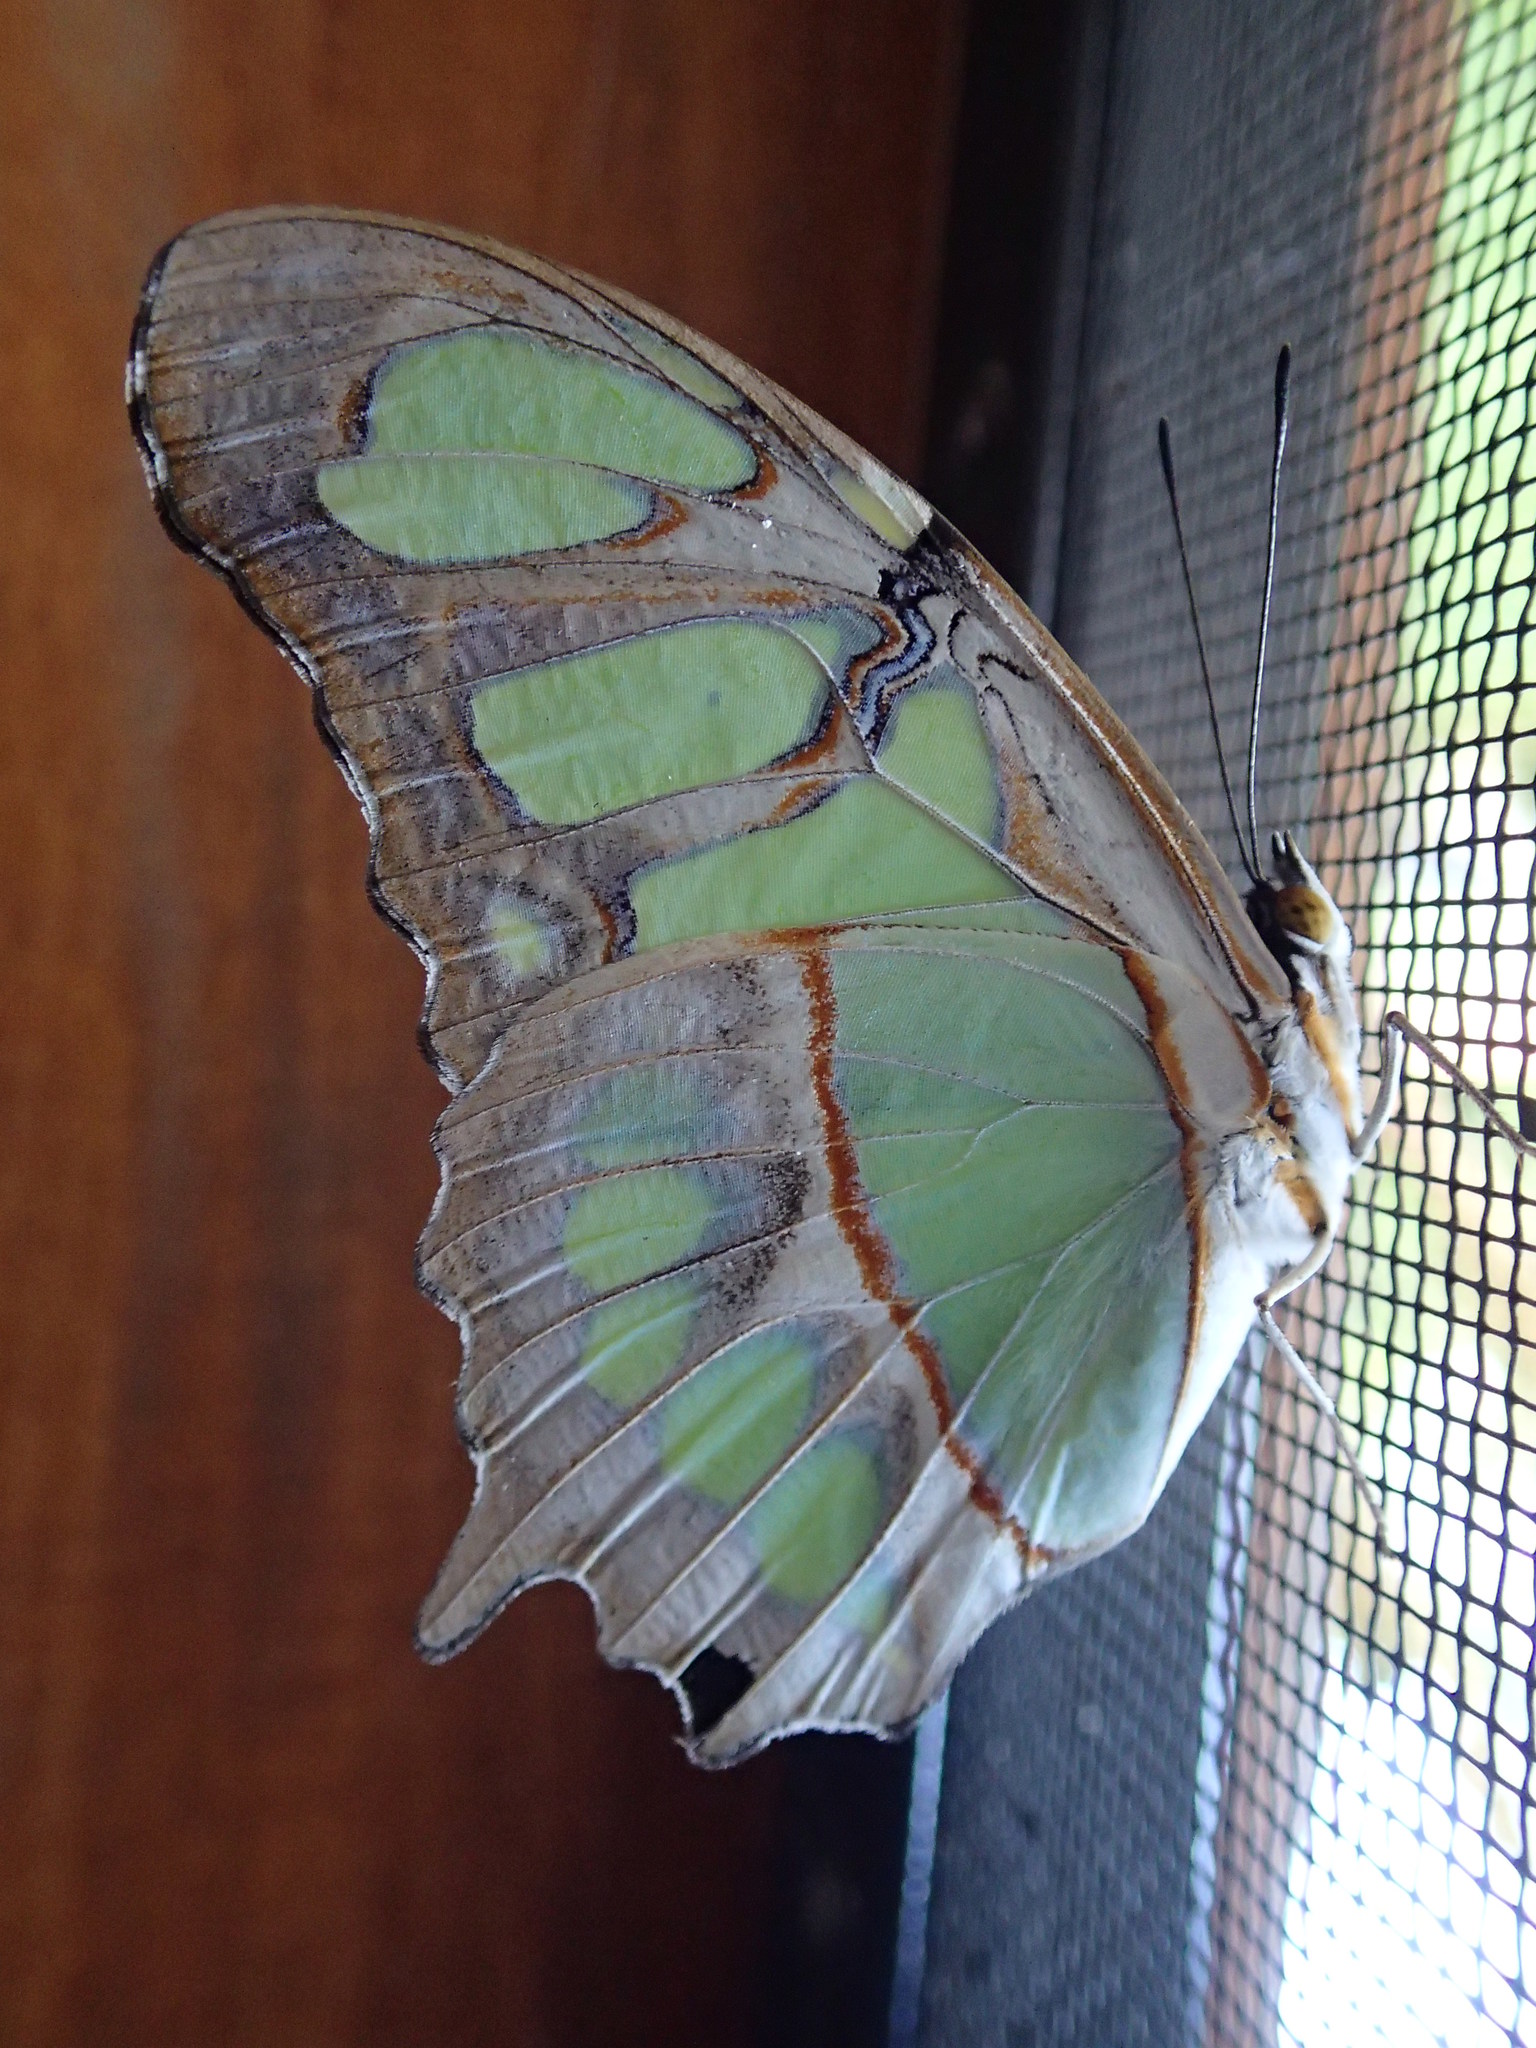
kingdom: Animalia
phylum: Arthropoda
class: Insecta
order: Lepidoptera
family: Nymphalidae
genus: Siproeta
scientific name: Siproeta stelenes
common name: Malachite
